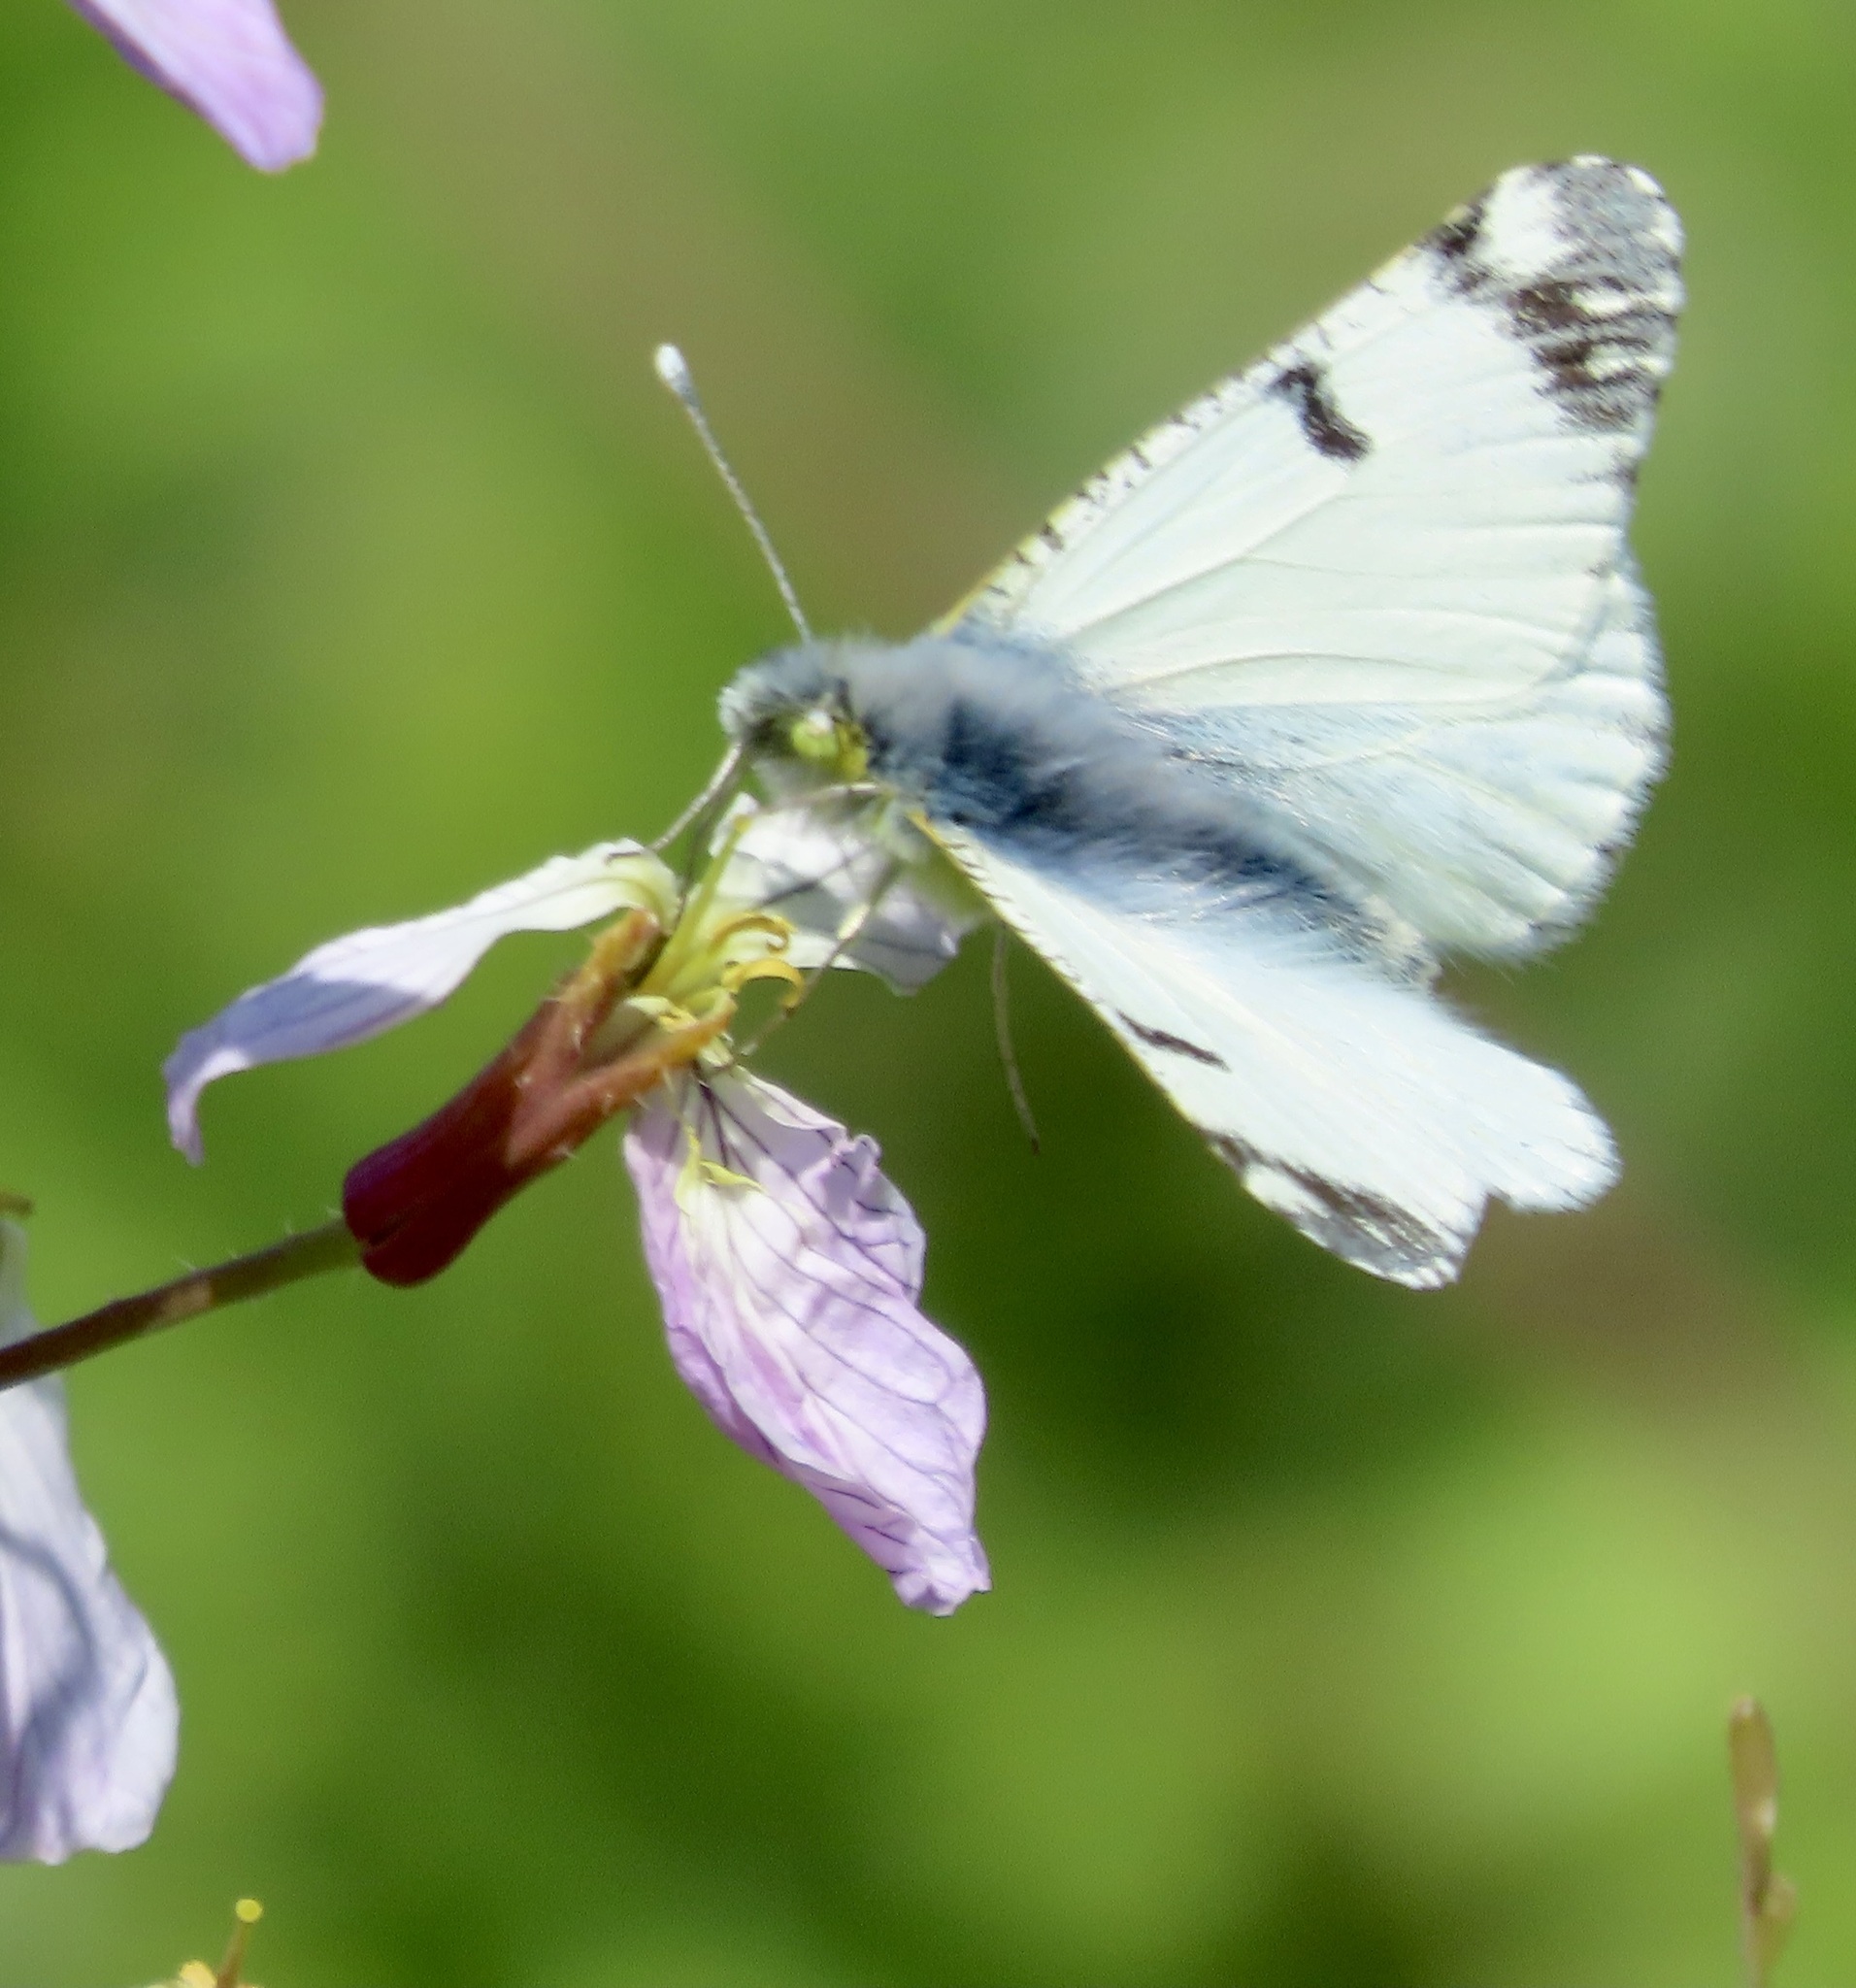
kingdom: Animalia
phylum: Arthropoda
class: Insecta
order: Lepidoptera
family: Pieridae
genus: Euchloe
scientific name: Euchloe ausonides
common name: Creamy marblewing
